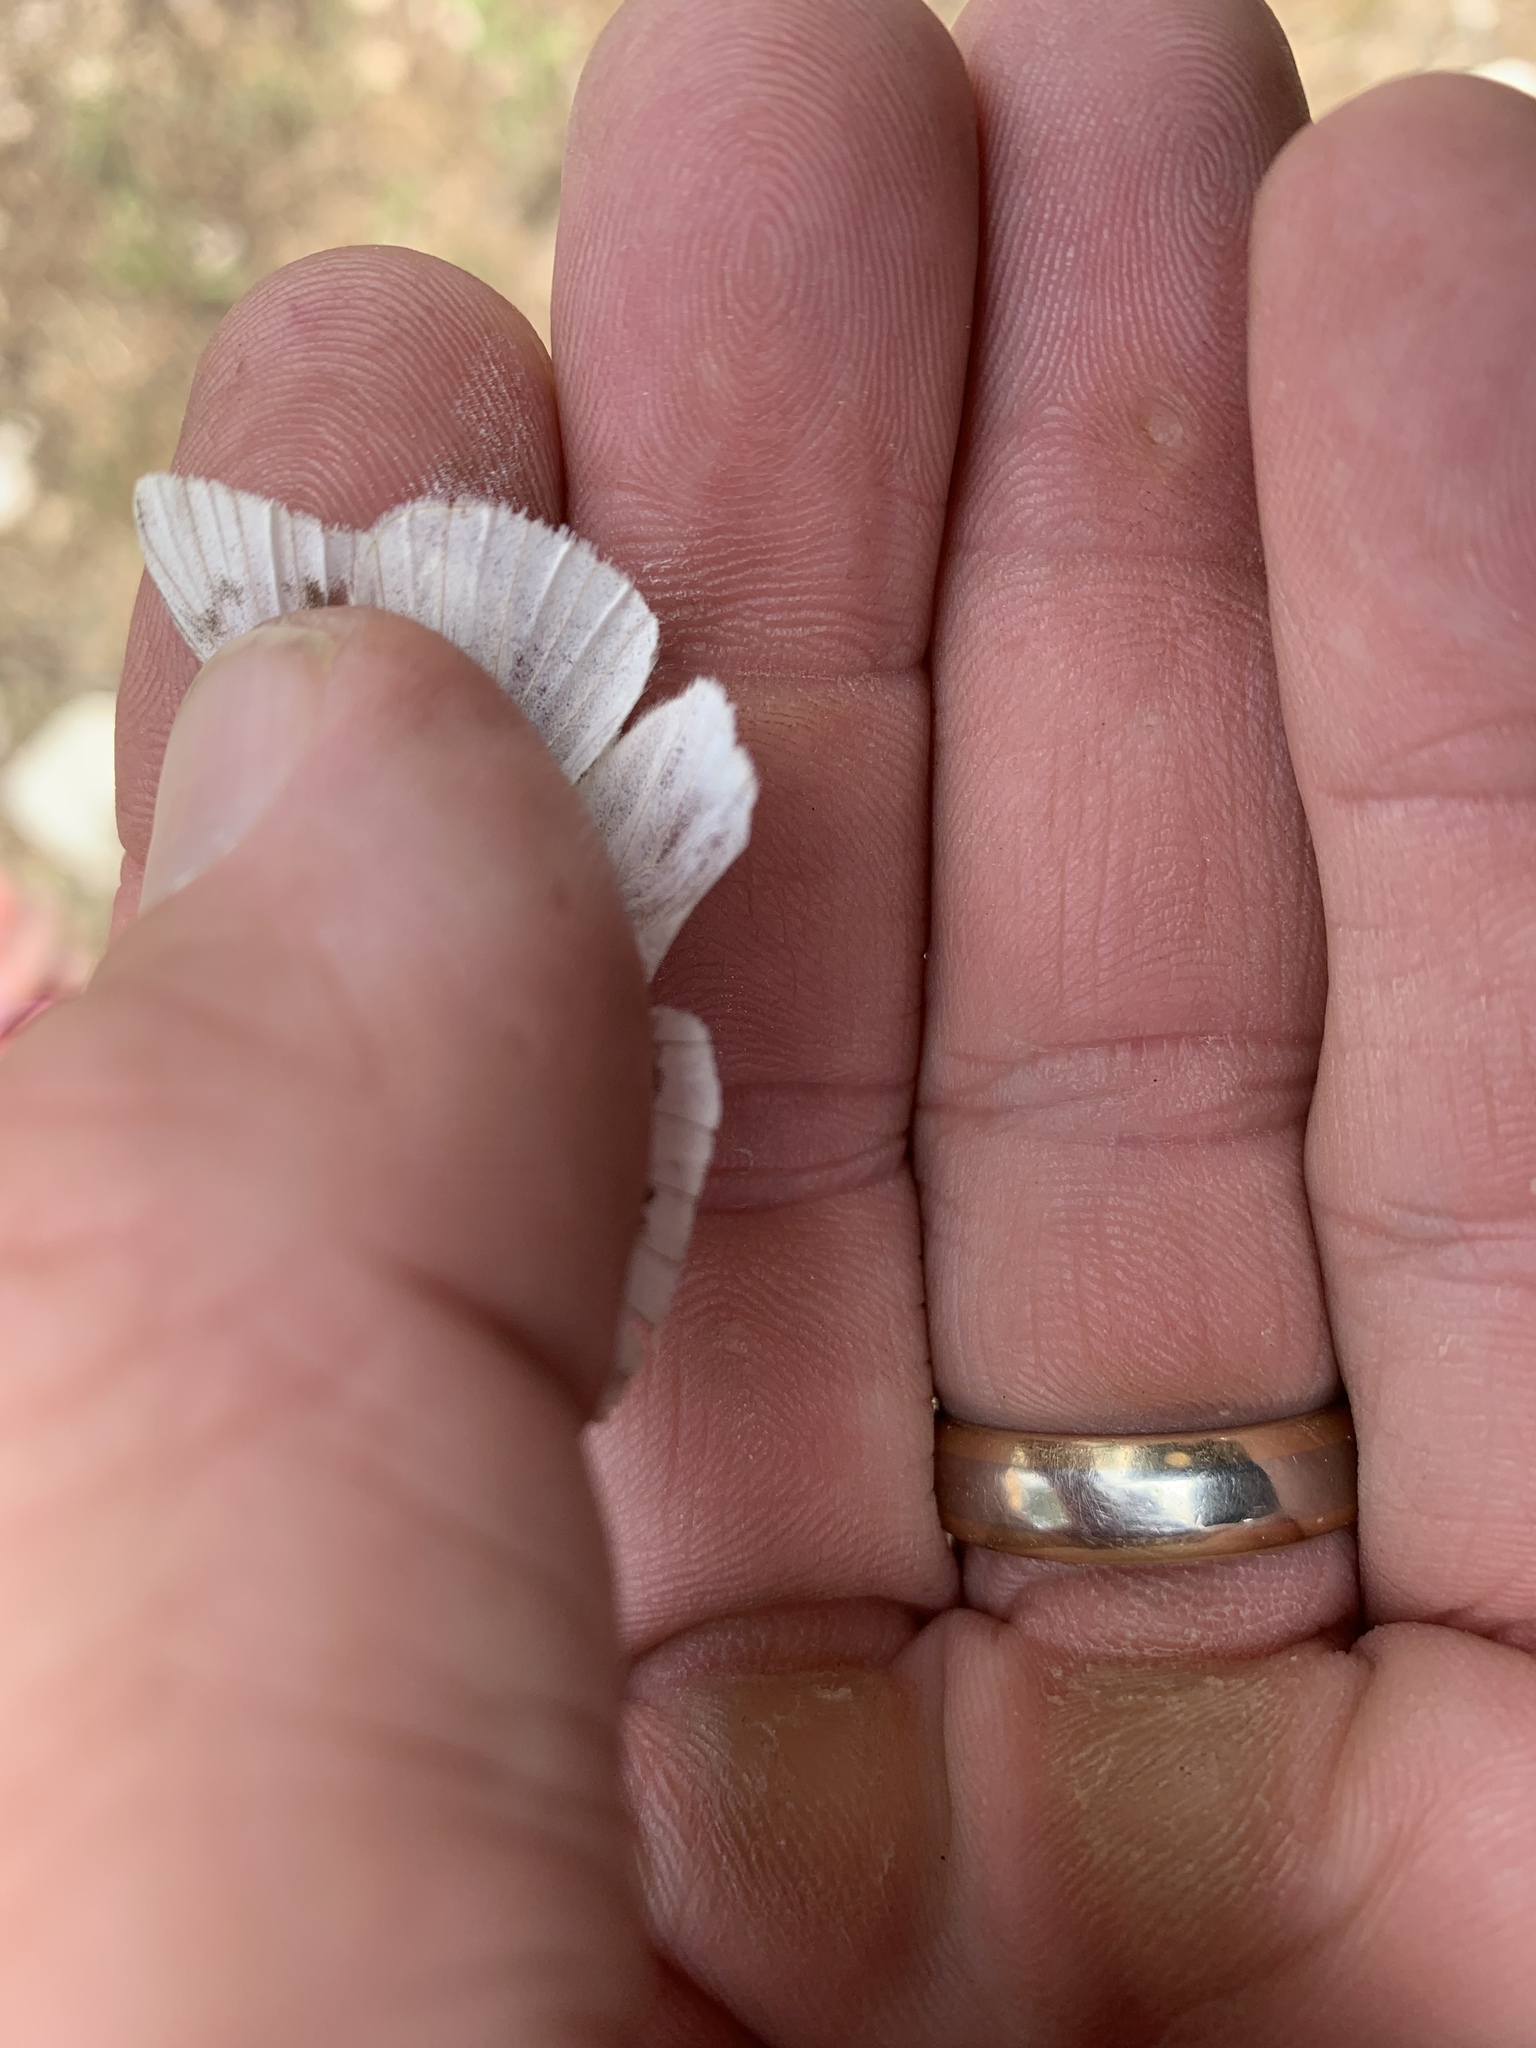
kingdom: Animalia
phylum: Arthropoda
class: Insecta
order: Lepidoptera
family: Pieridae
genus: Pontia
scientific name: Pontia protodice
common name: Checkered white
